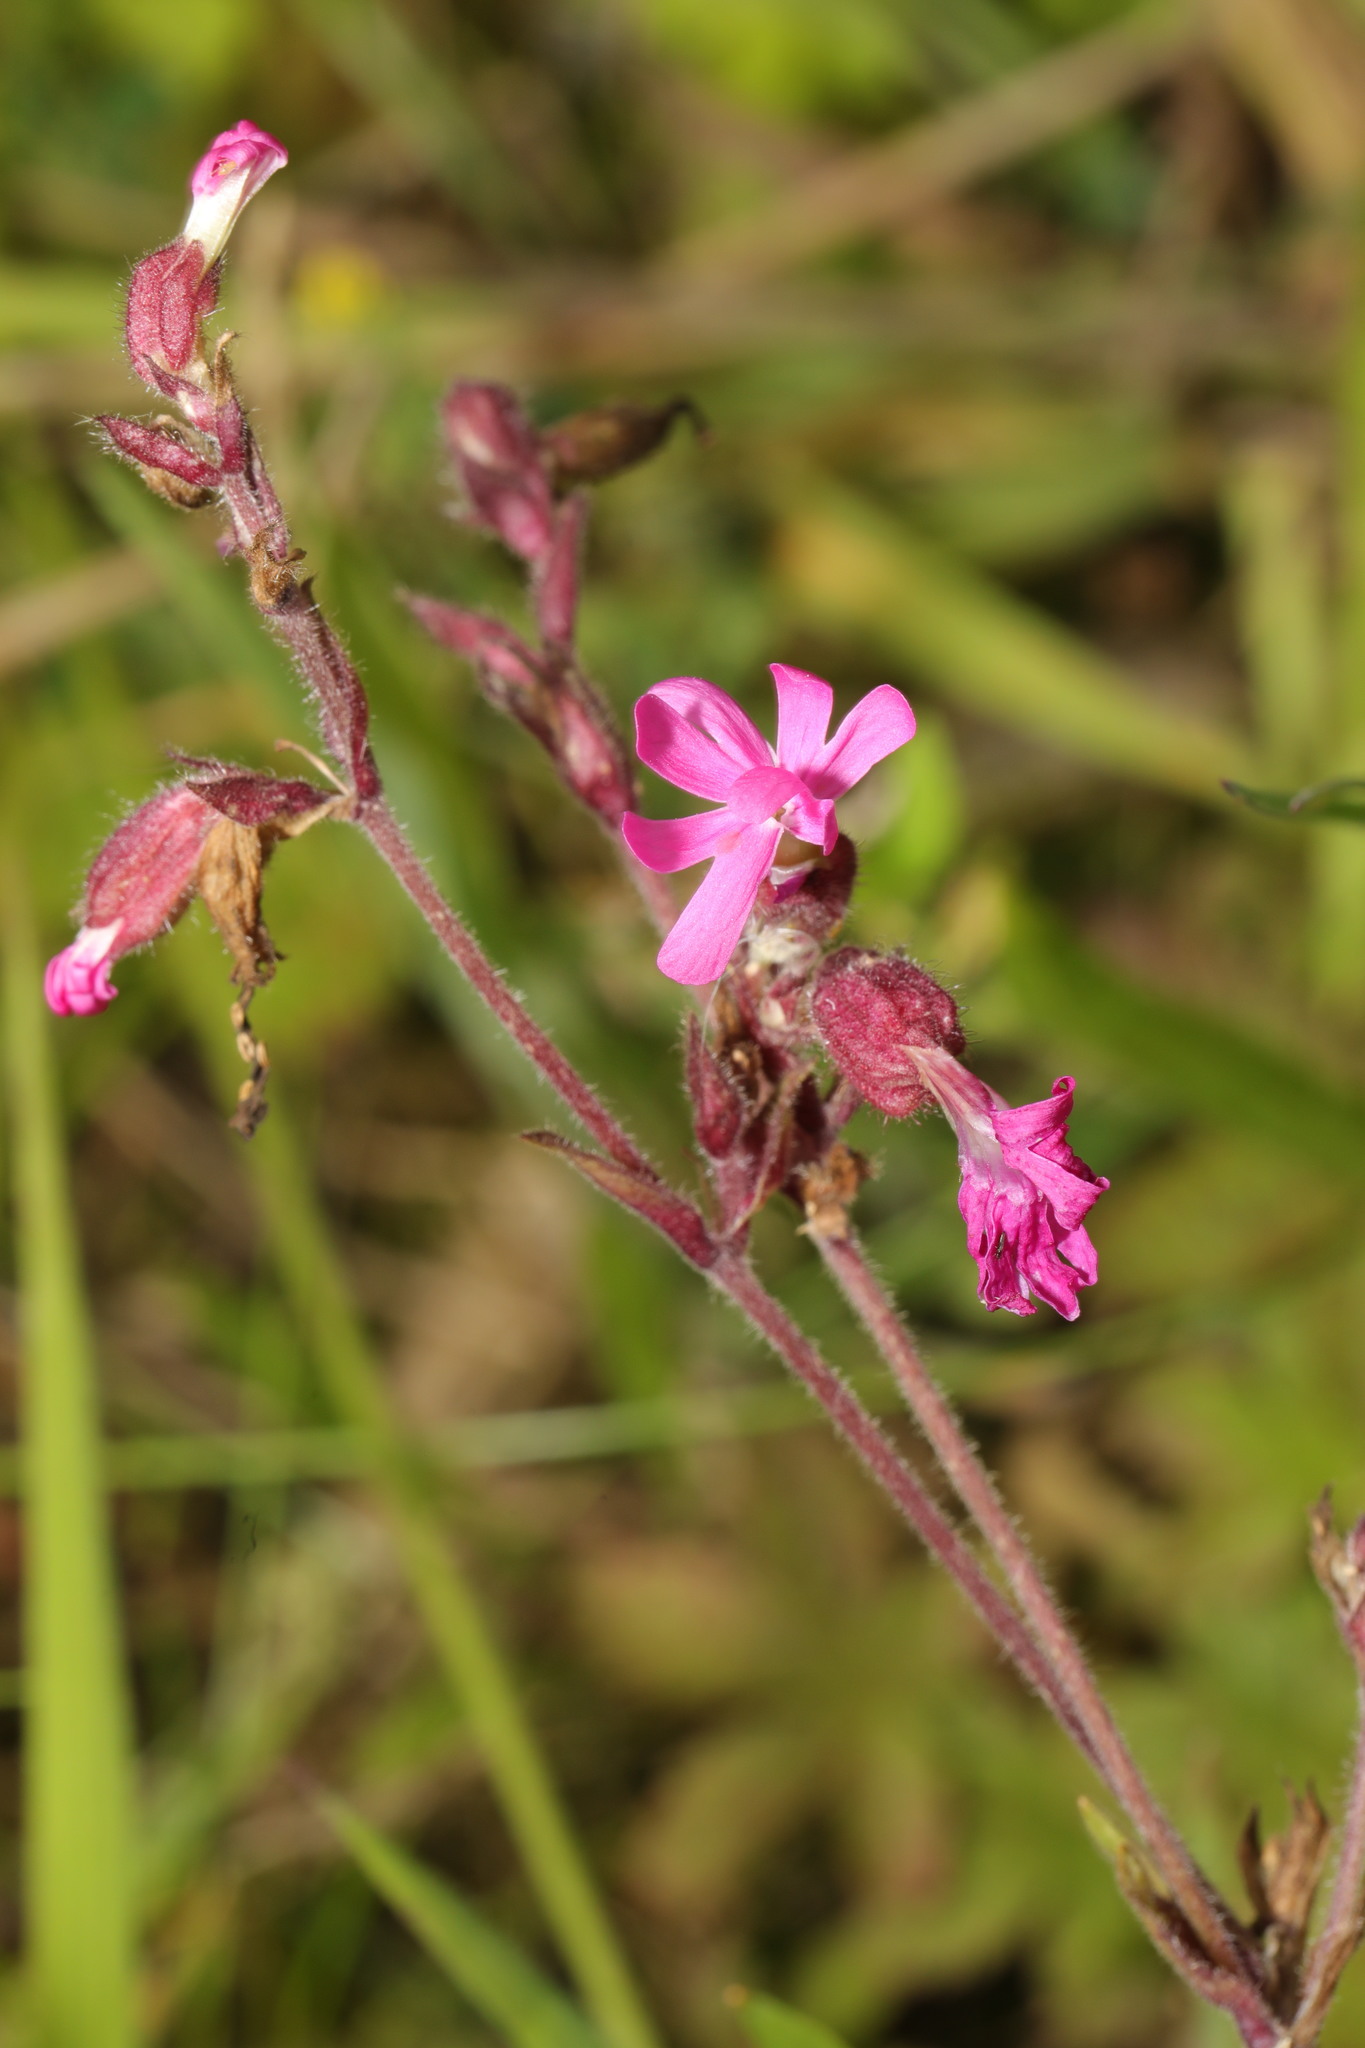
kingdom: Plantae
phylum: Tracheophyta
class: Magnoliopsida
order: Caryophyllales
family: Caryophyllaceae
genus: Silene
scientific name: Silene dioica
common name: Red campion
